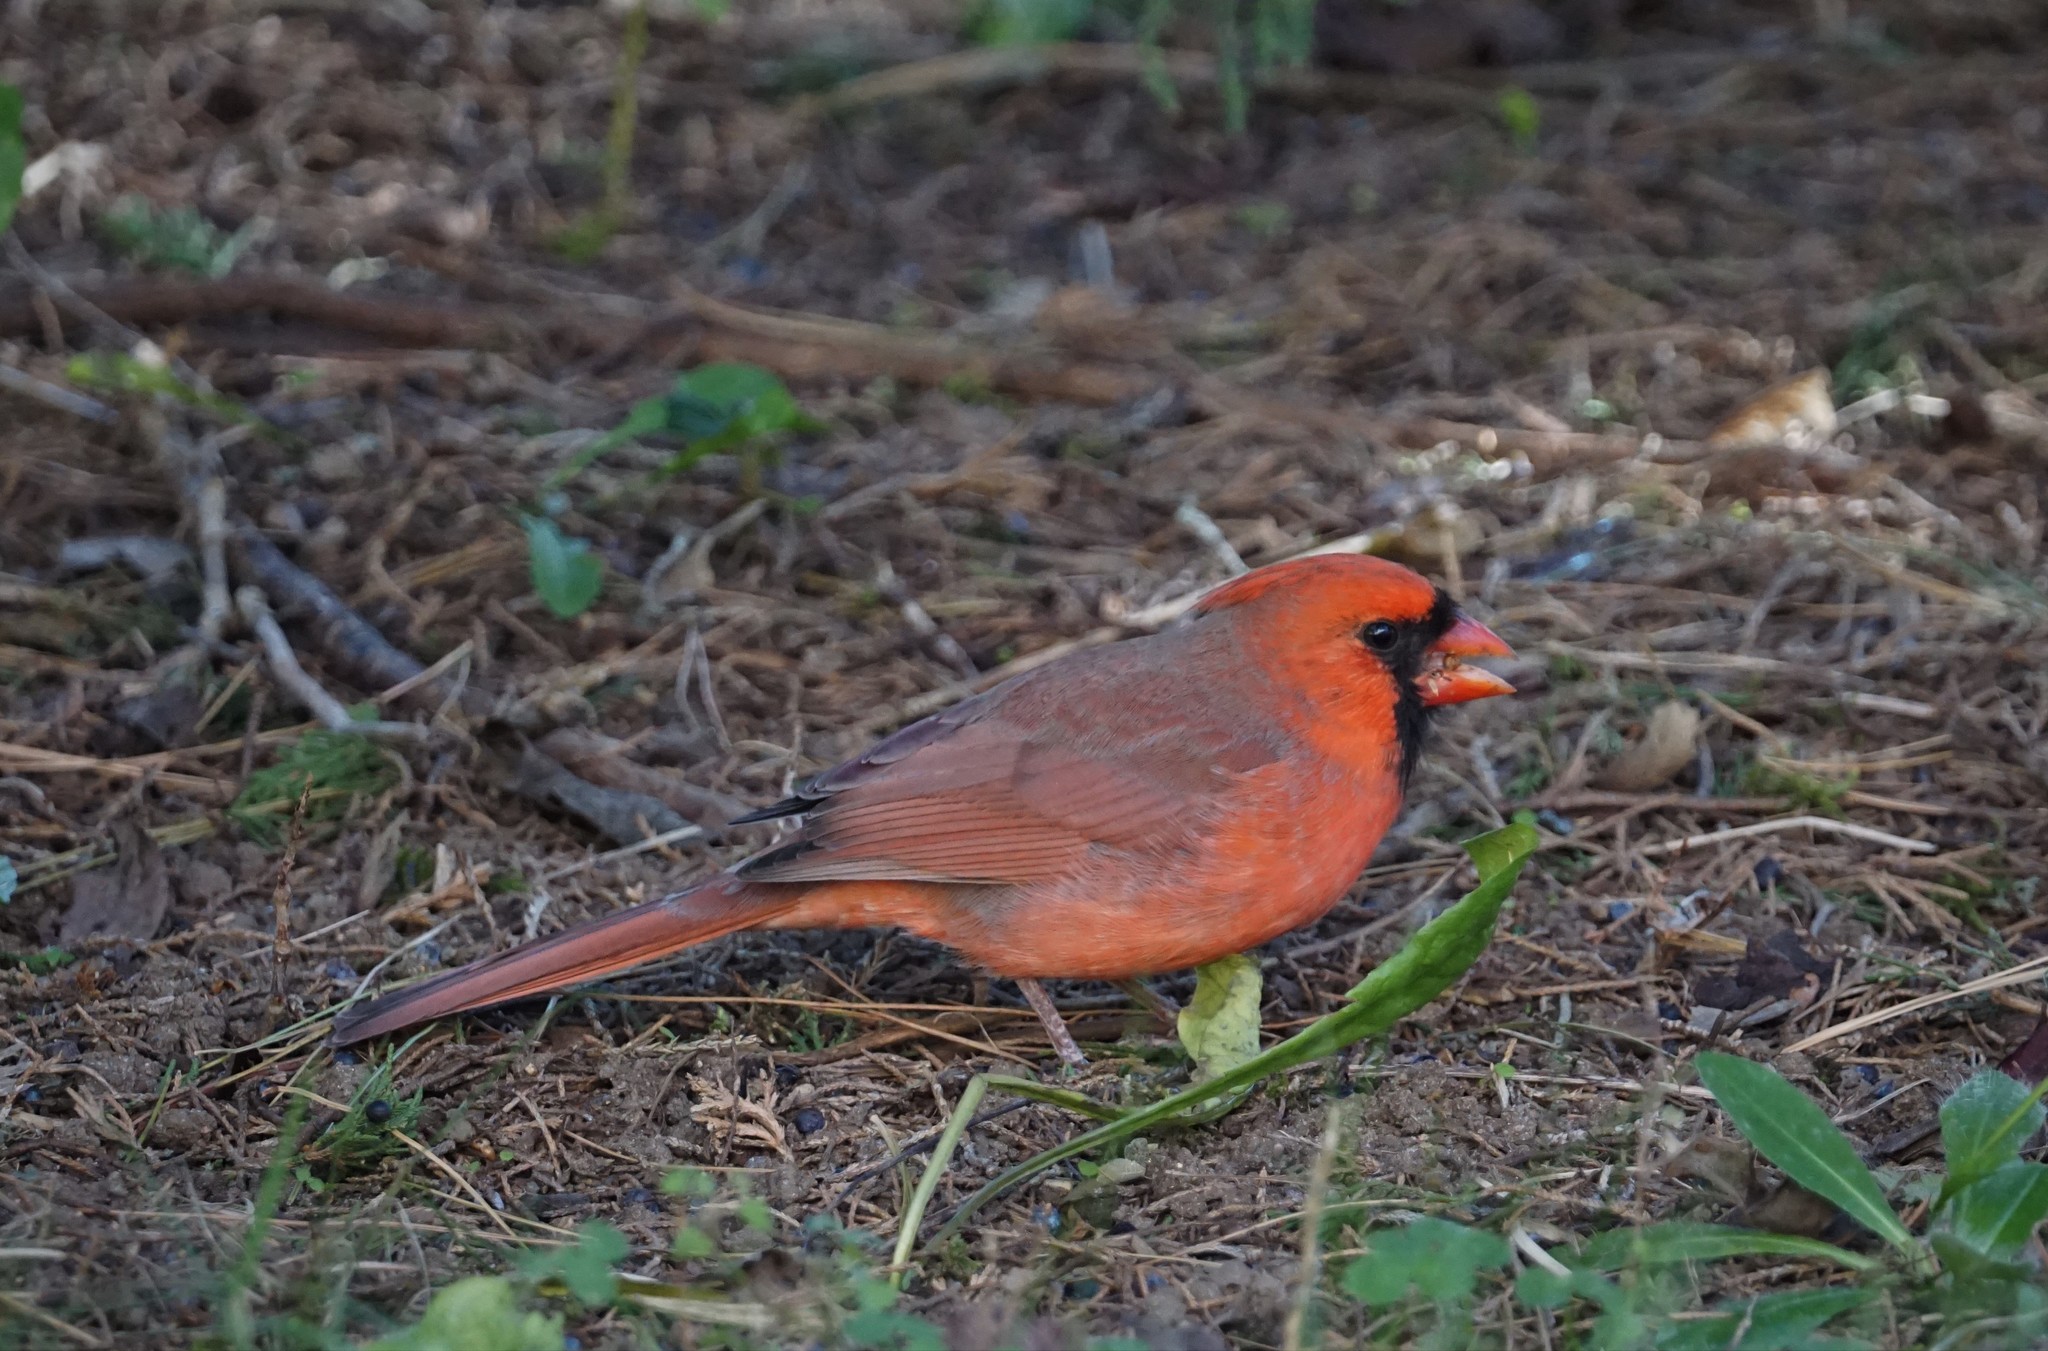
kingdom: Animalia
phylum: Chordata
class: Aves
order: Passeriformes
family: Cardinalidae
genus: Cardinalis
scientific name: Cardinalis cardinalis
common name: Northern cardinal
